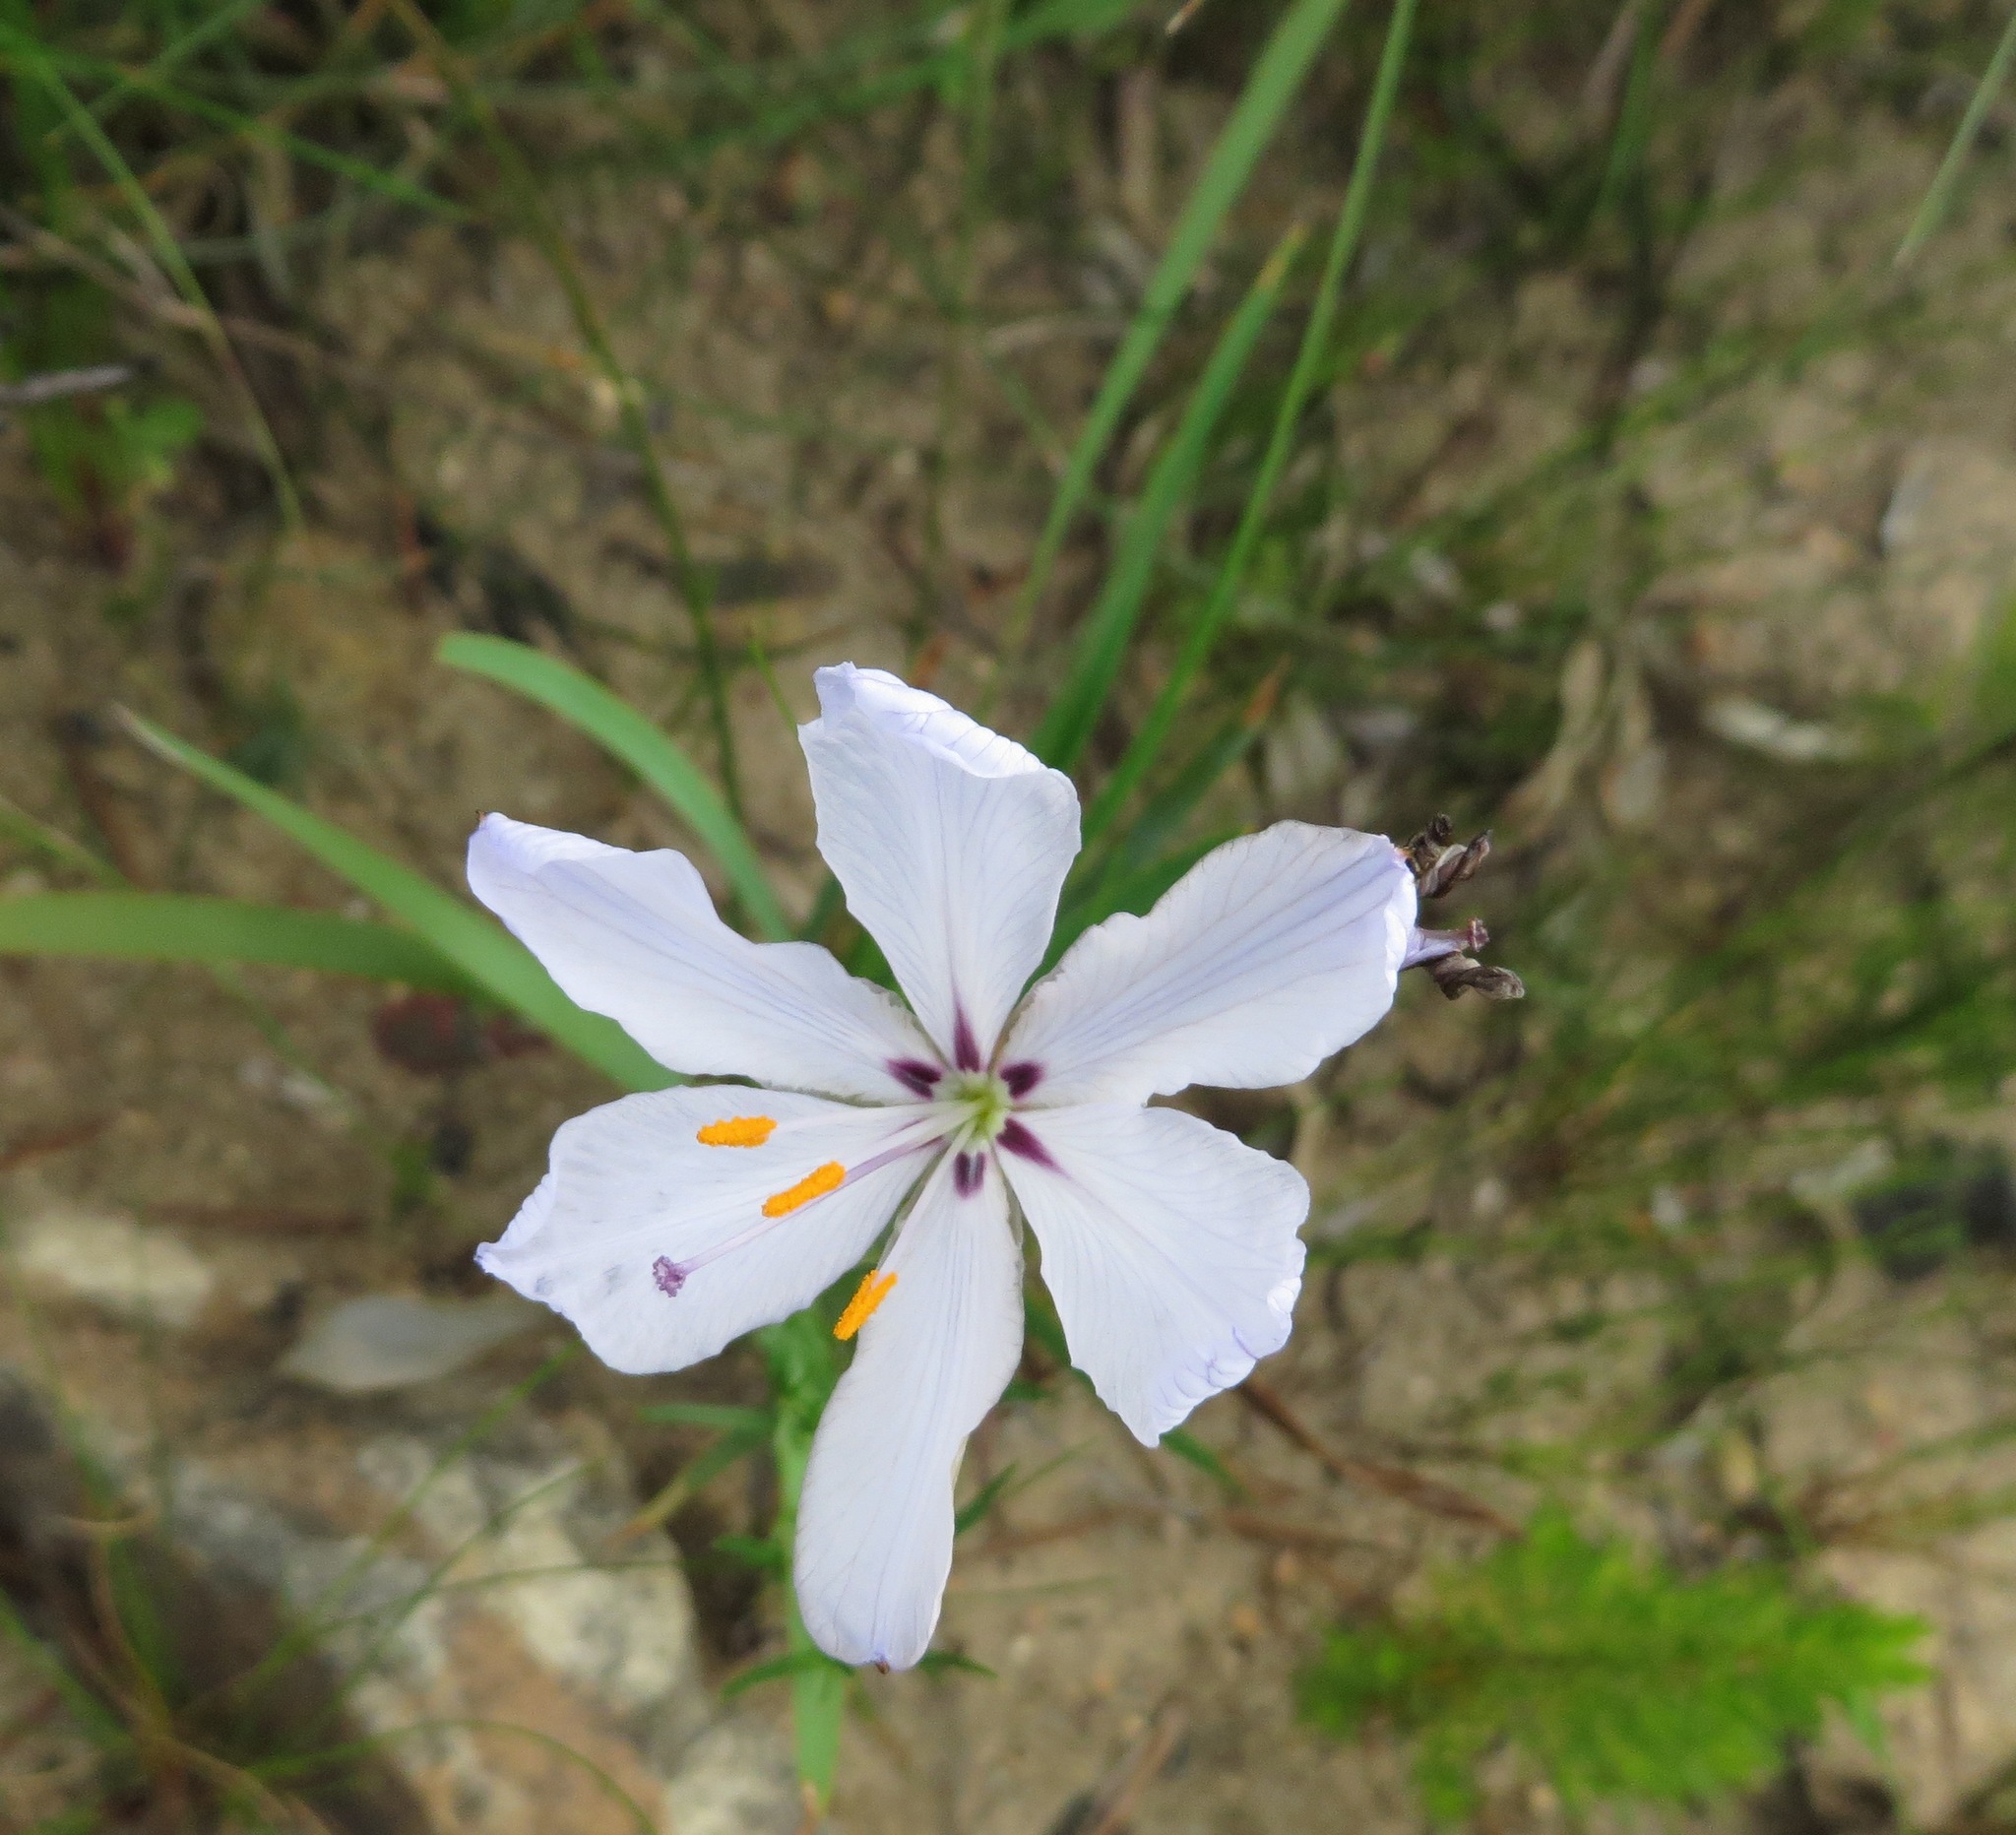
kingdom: Plantae
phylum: Tracheophyta
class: Liliopsida
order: Asparagales
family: Iridaceae
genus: Aristea
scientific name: Aristea spiralis
